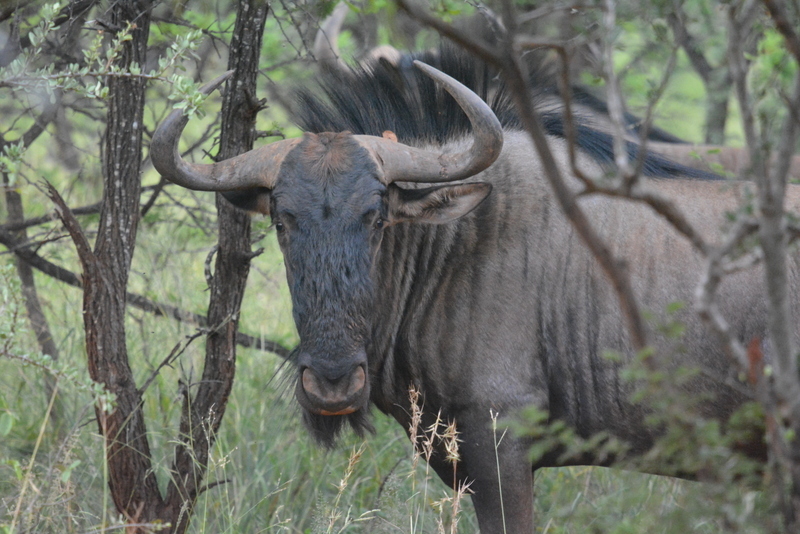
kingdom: Animalia
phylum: Chordata
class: Mammalia
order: Artiodactyla
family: Bovidae
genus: Connochaetes
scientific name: Connochaetes taurinus
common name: Blue wildebeest
